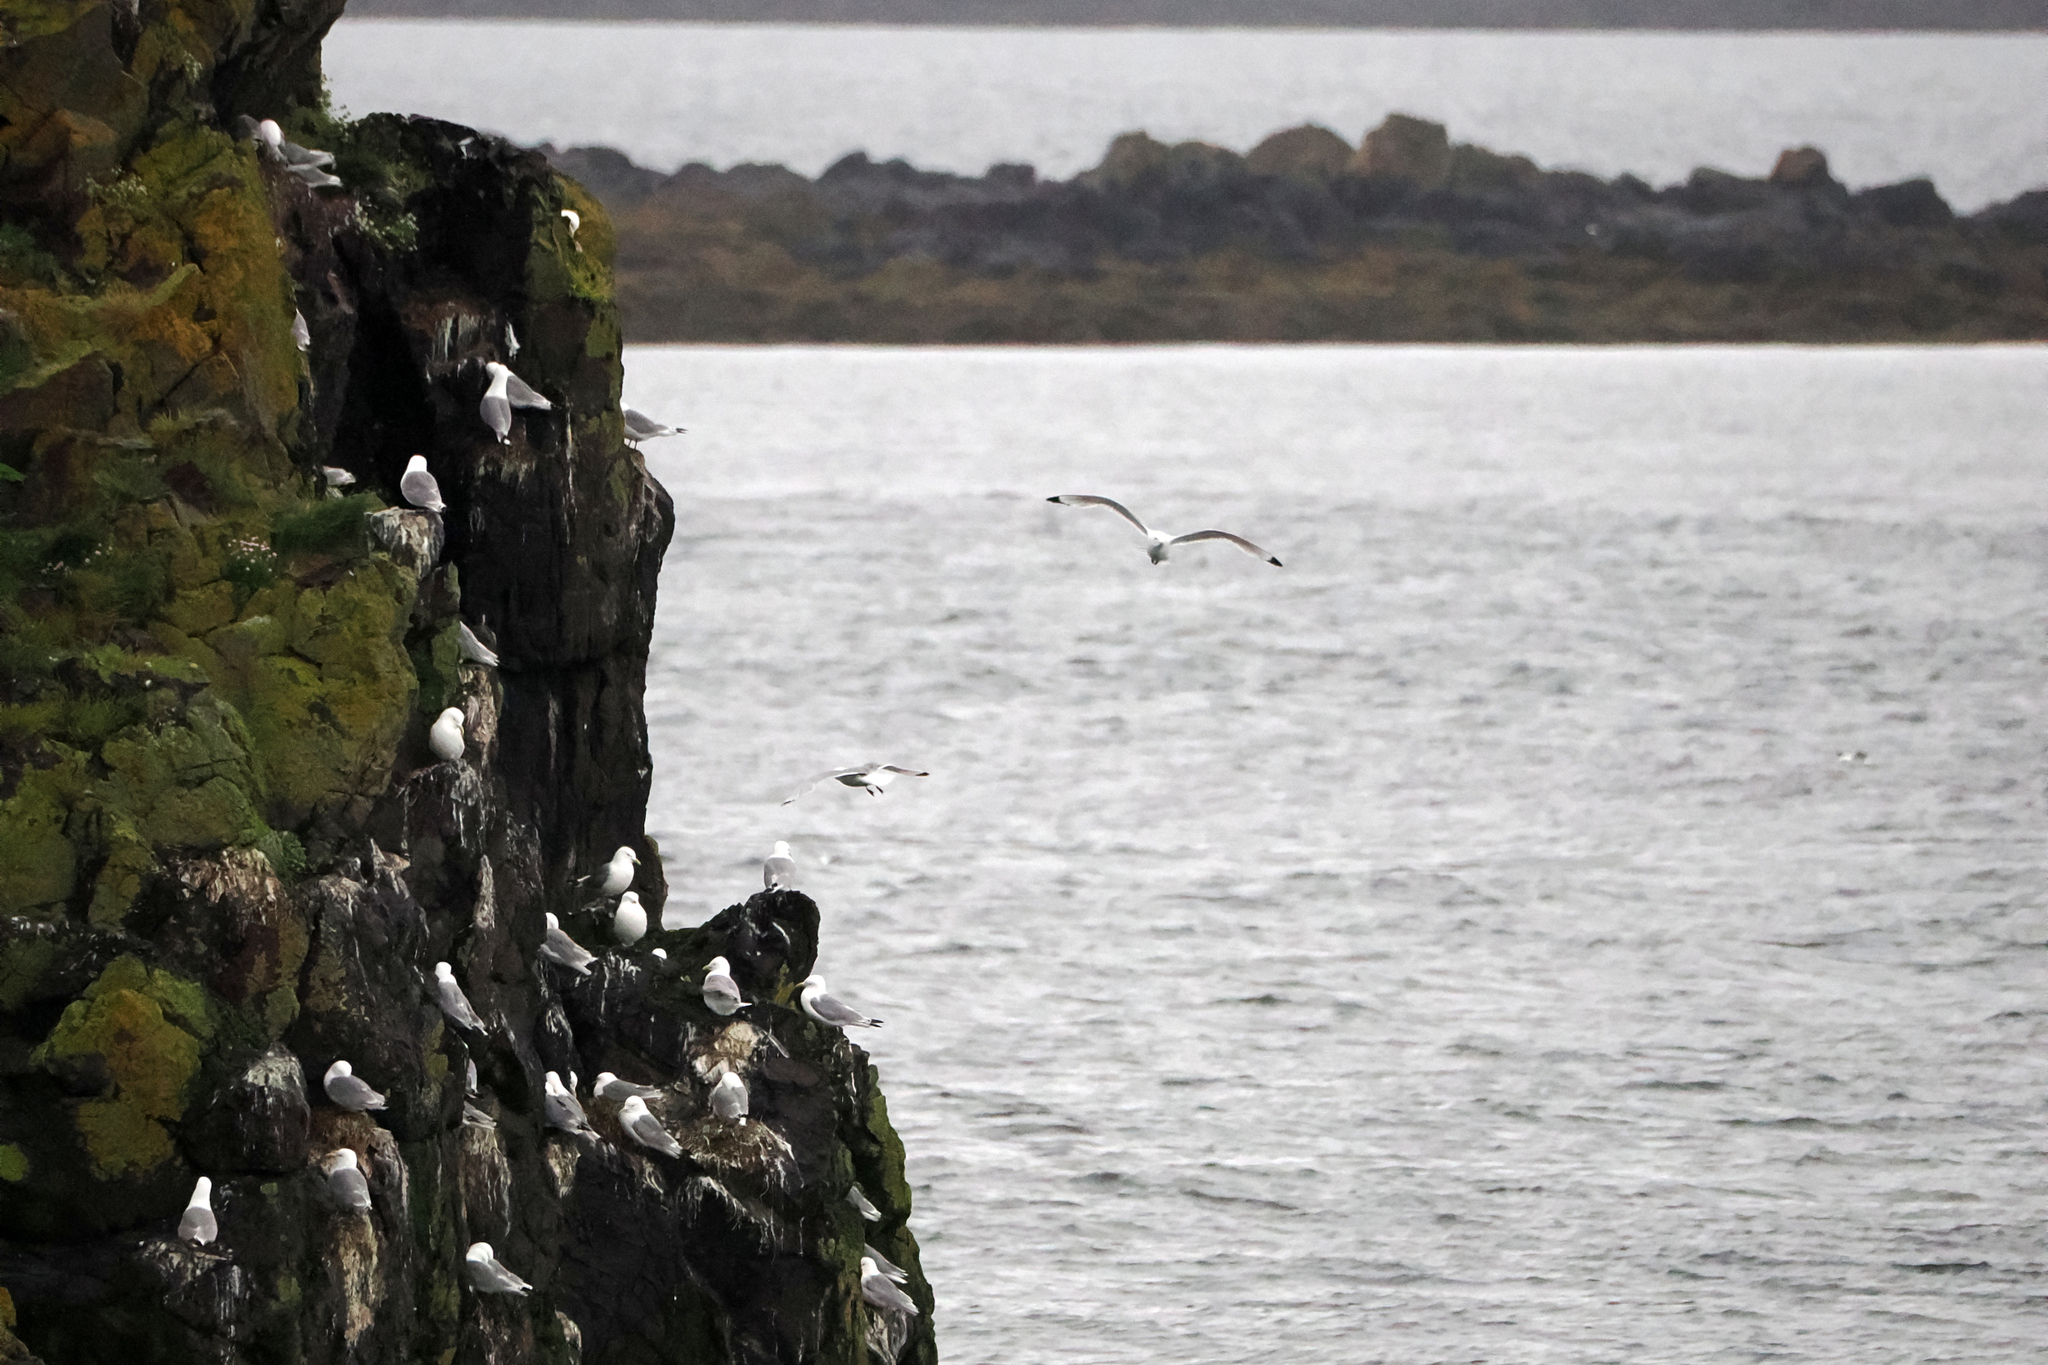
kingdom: Animalia
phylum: Chordata
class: Aves
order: Charadriiformes
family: Laridae
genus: Rissa
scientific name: Rissa tridactyla
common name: Black-legged kittiwake
